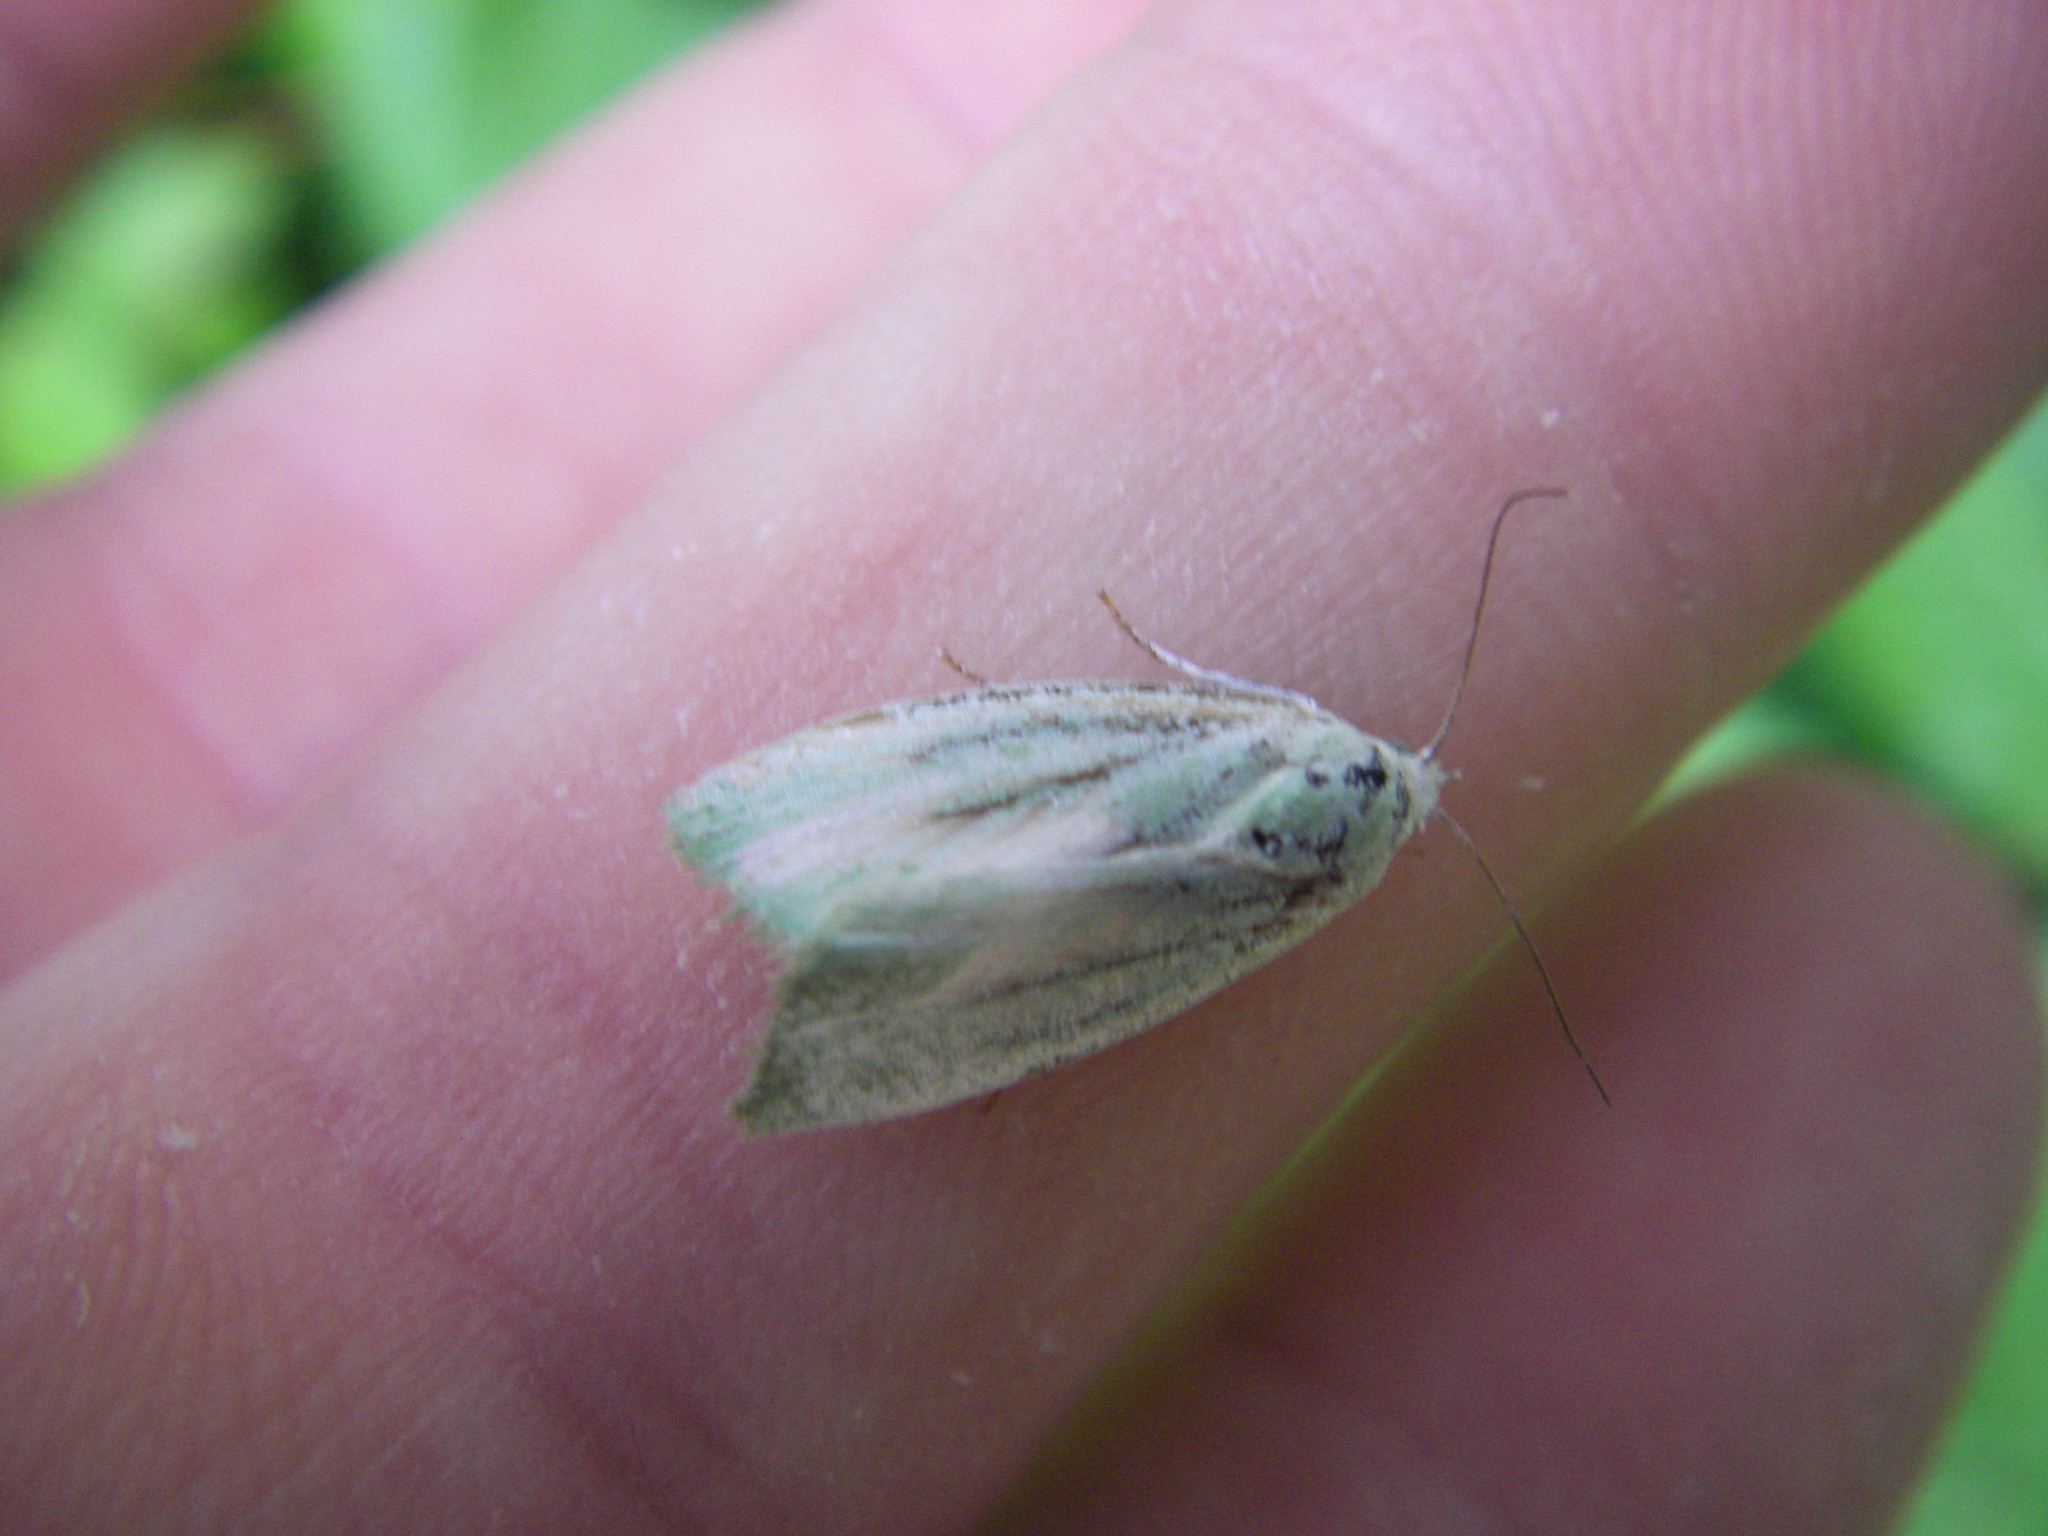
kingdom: Animalia
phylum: Arthropoda
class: Insecta
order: Lepidoptera
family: Nolidae
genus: Earias
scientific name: Earias clorana
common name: Cream-bordered green pea
